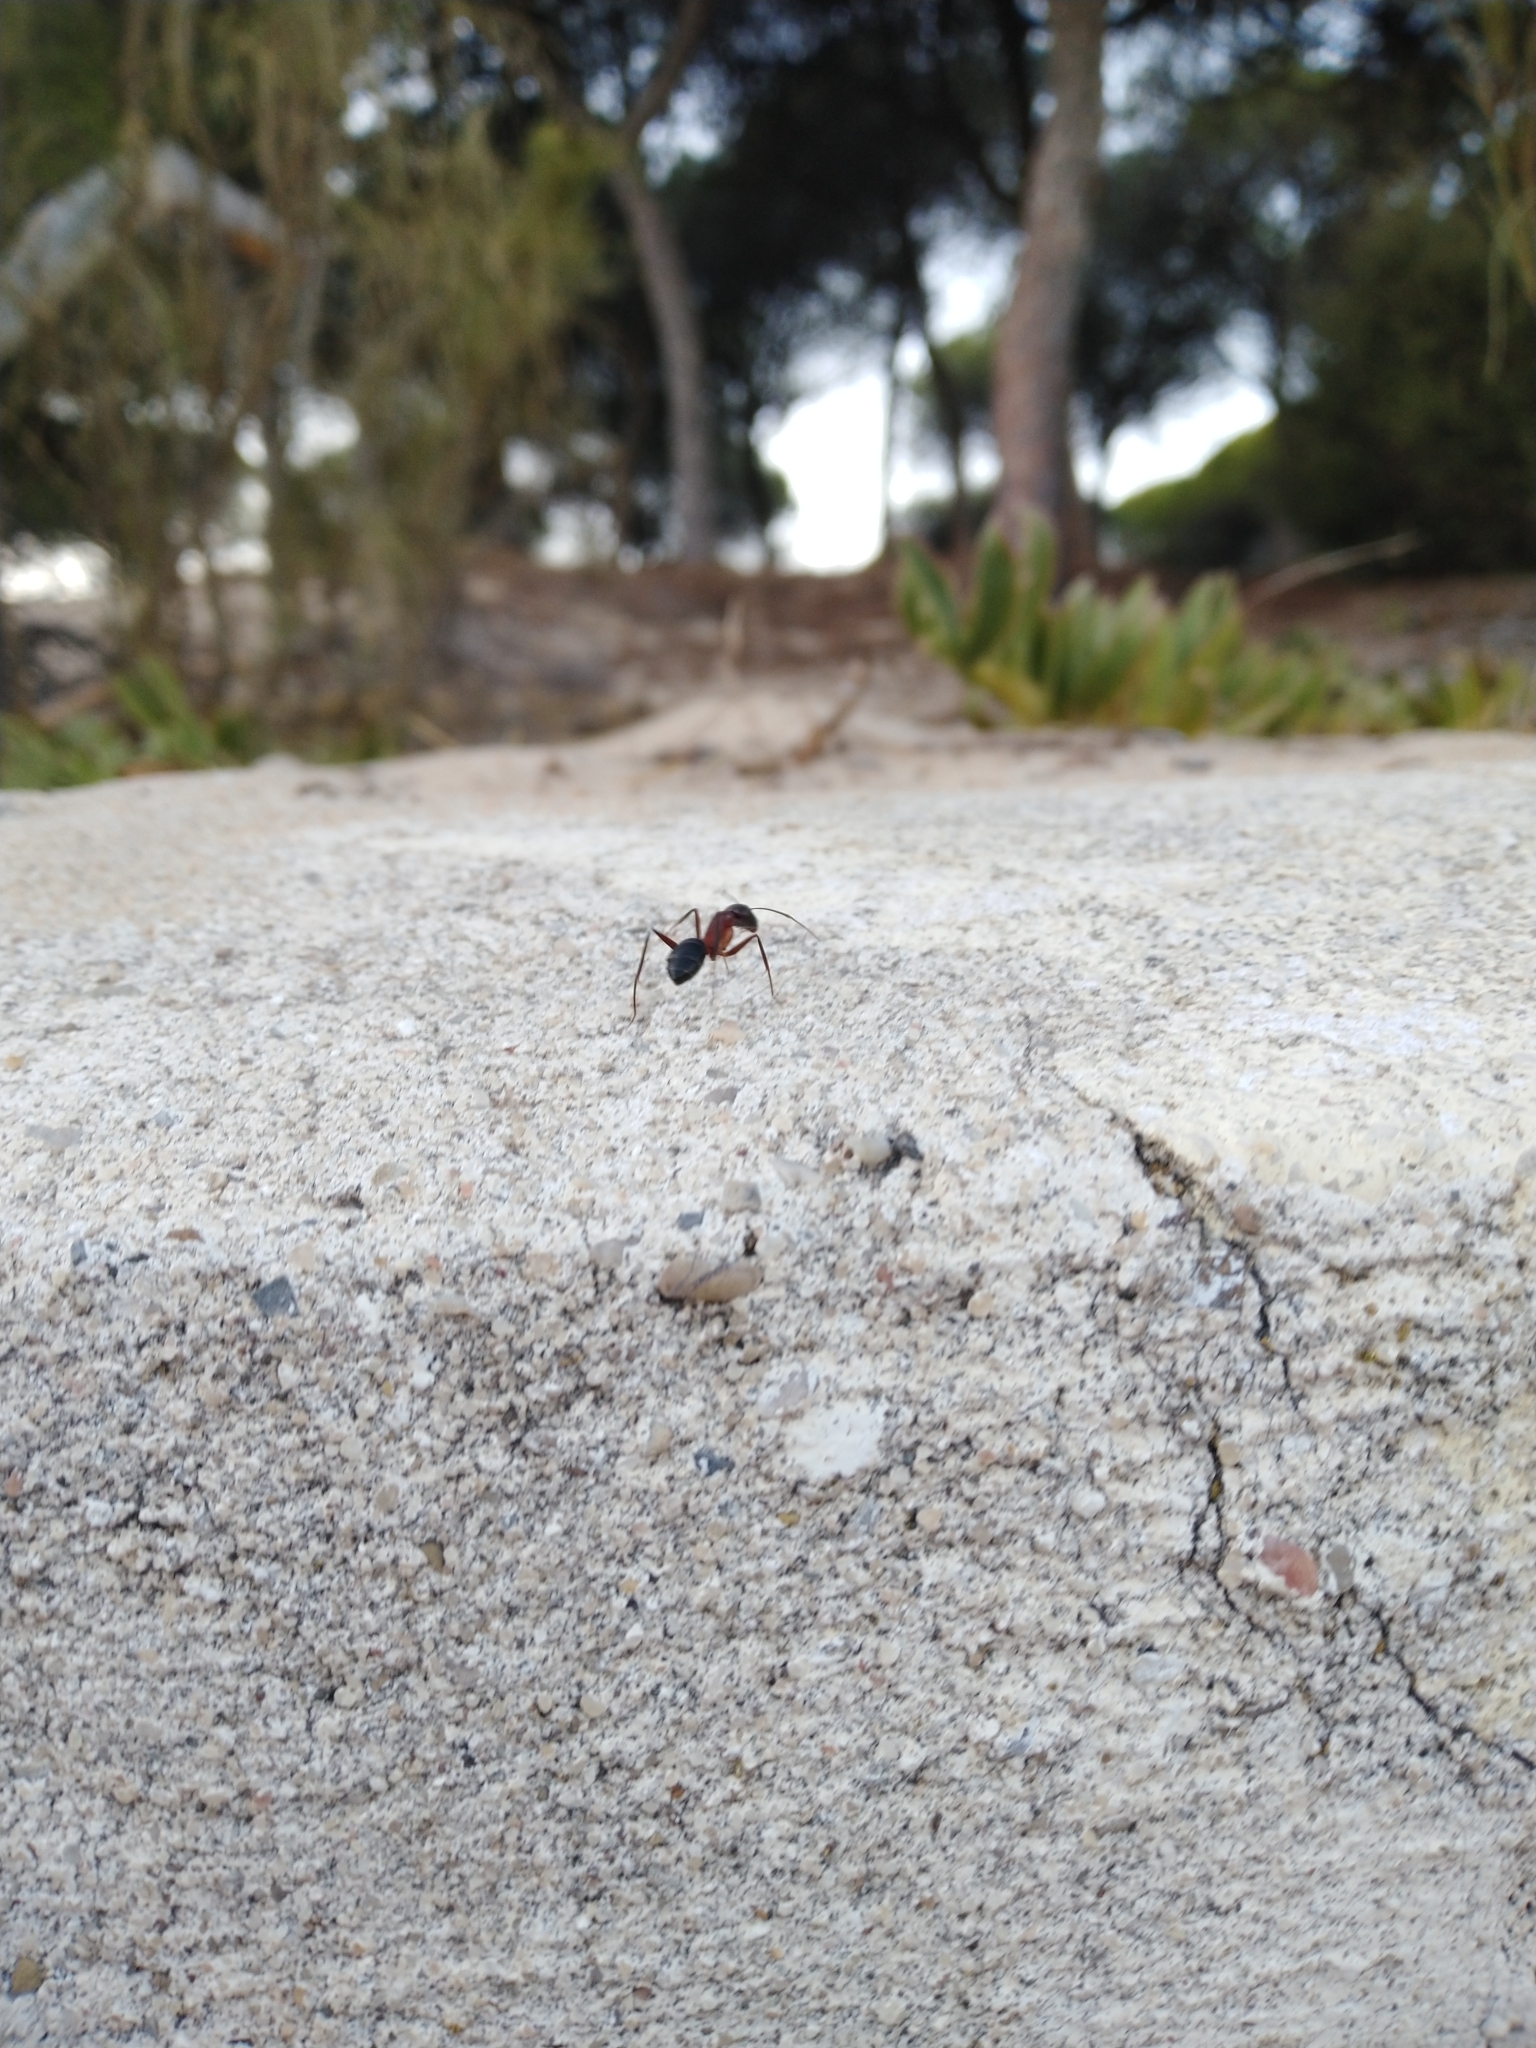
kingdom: Animalia
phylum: Arthropoda
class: Insecta
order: Hymenoptera
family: Formicidae
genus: Camponotus
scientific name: Camponotus barbaricus
